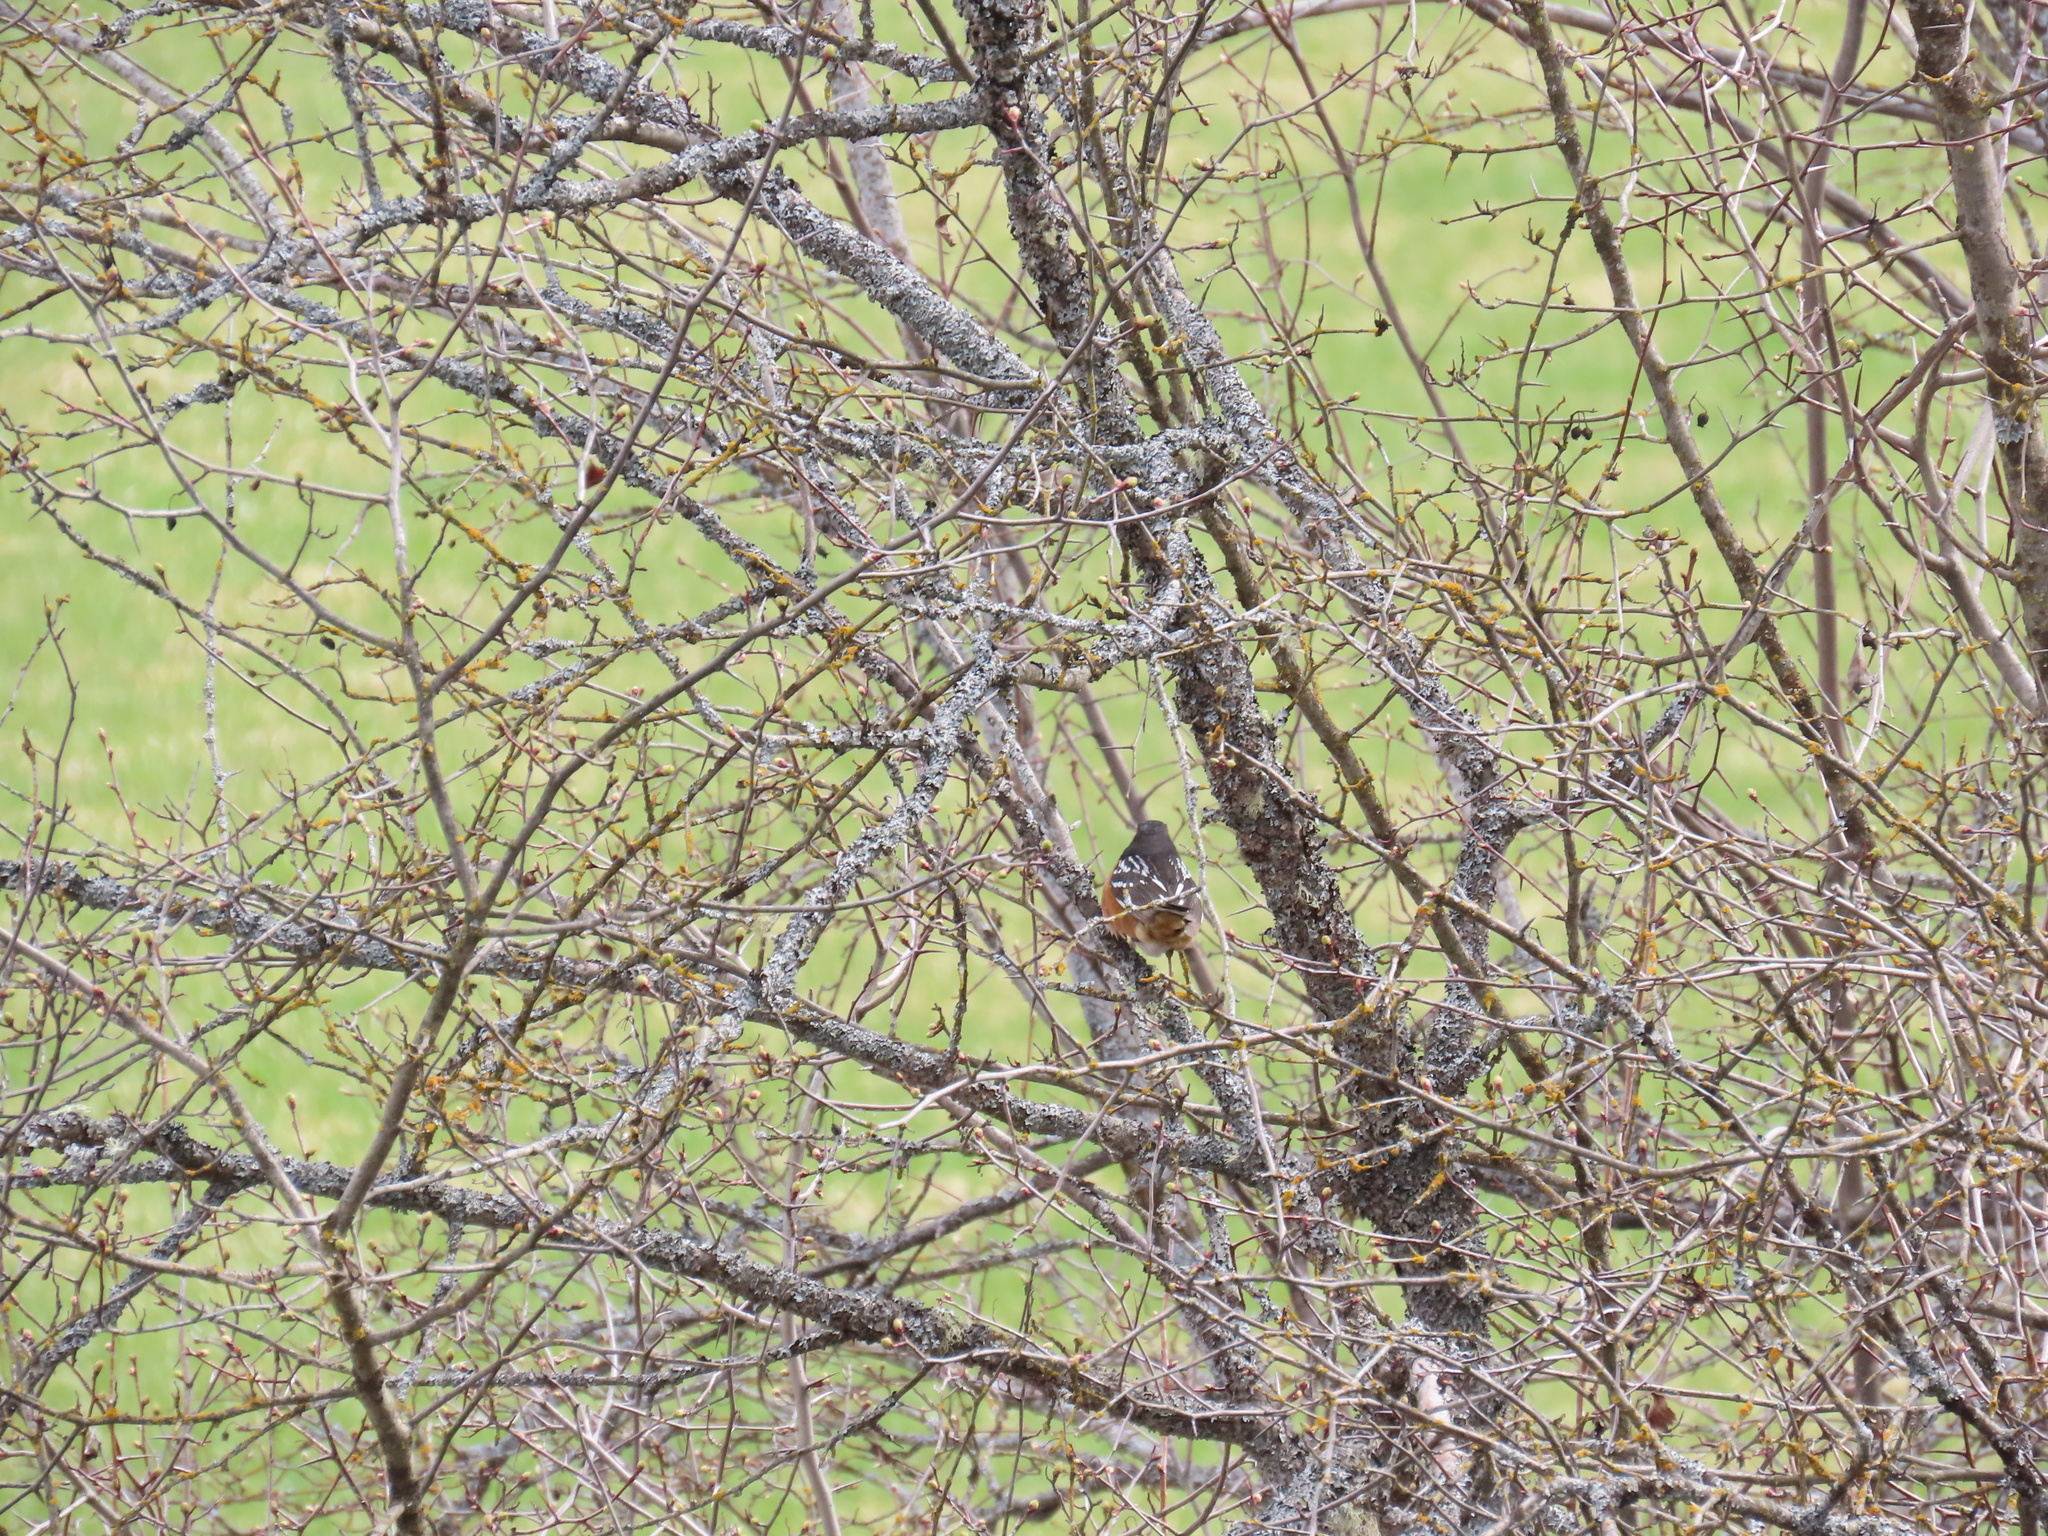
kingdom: Animalia
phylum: Chordata
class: Aves
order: Passeriformes
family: Passerellidae
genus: Pipilo
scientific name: Pipilo maculatus
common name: Spotted towhee
